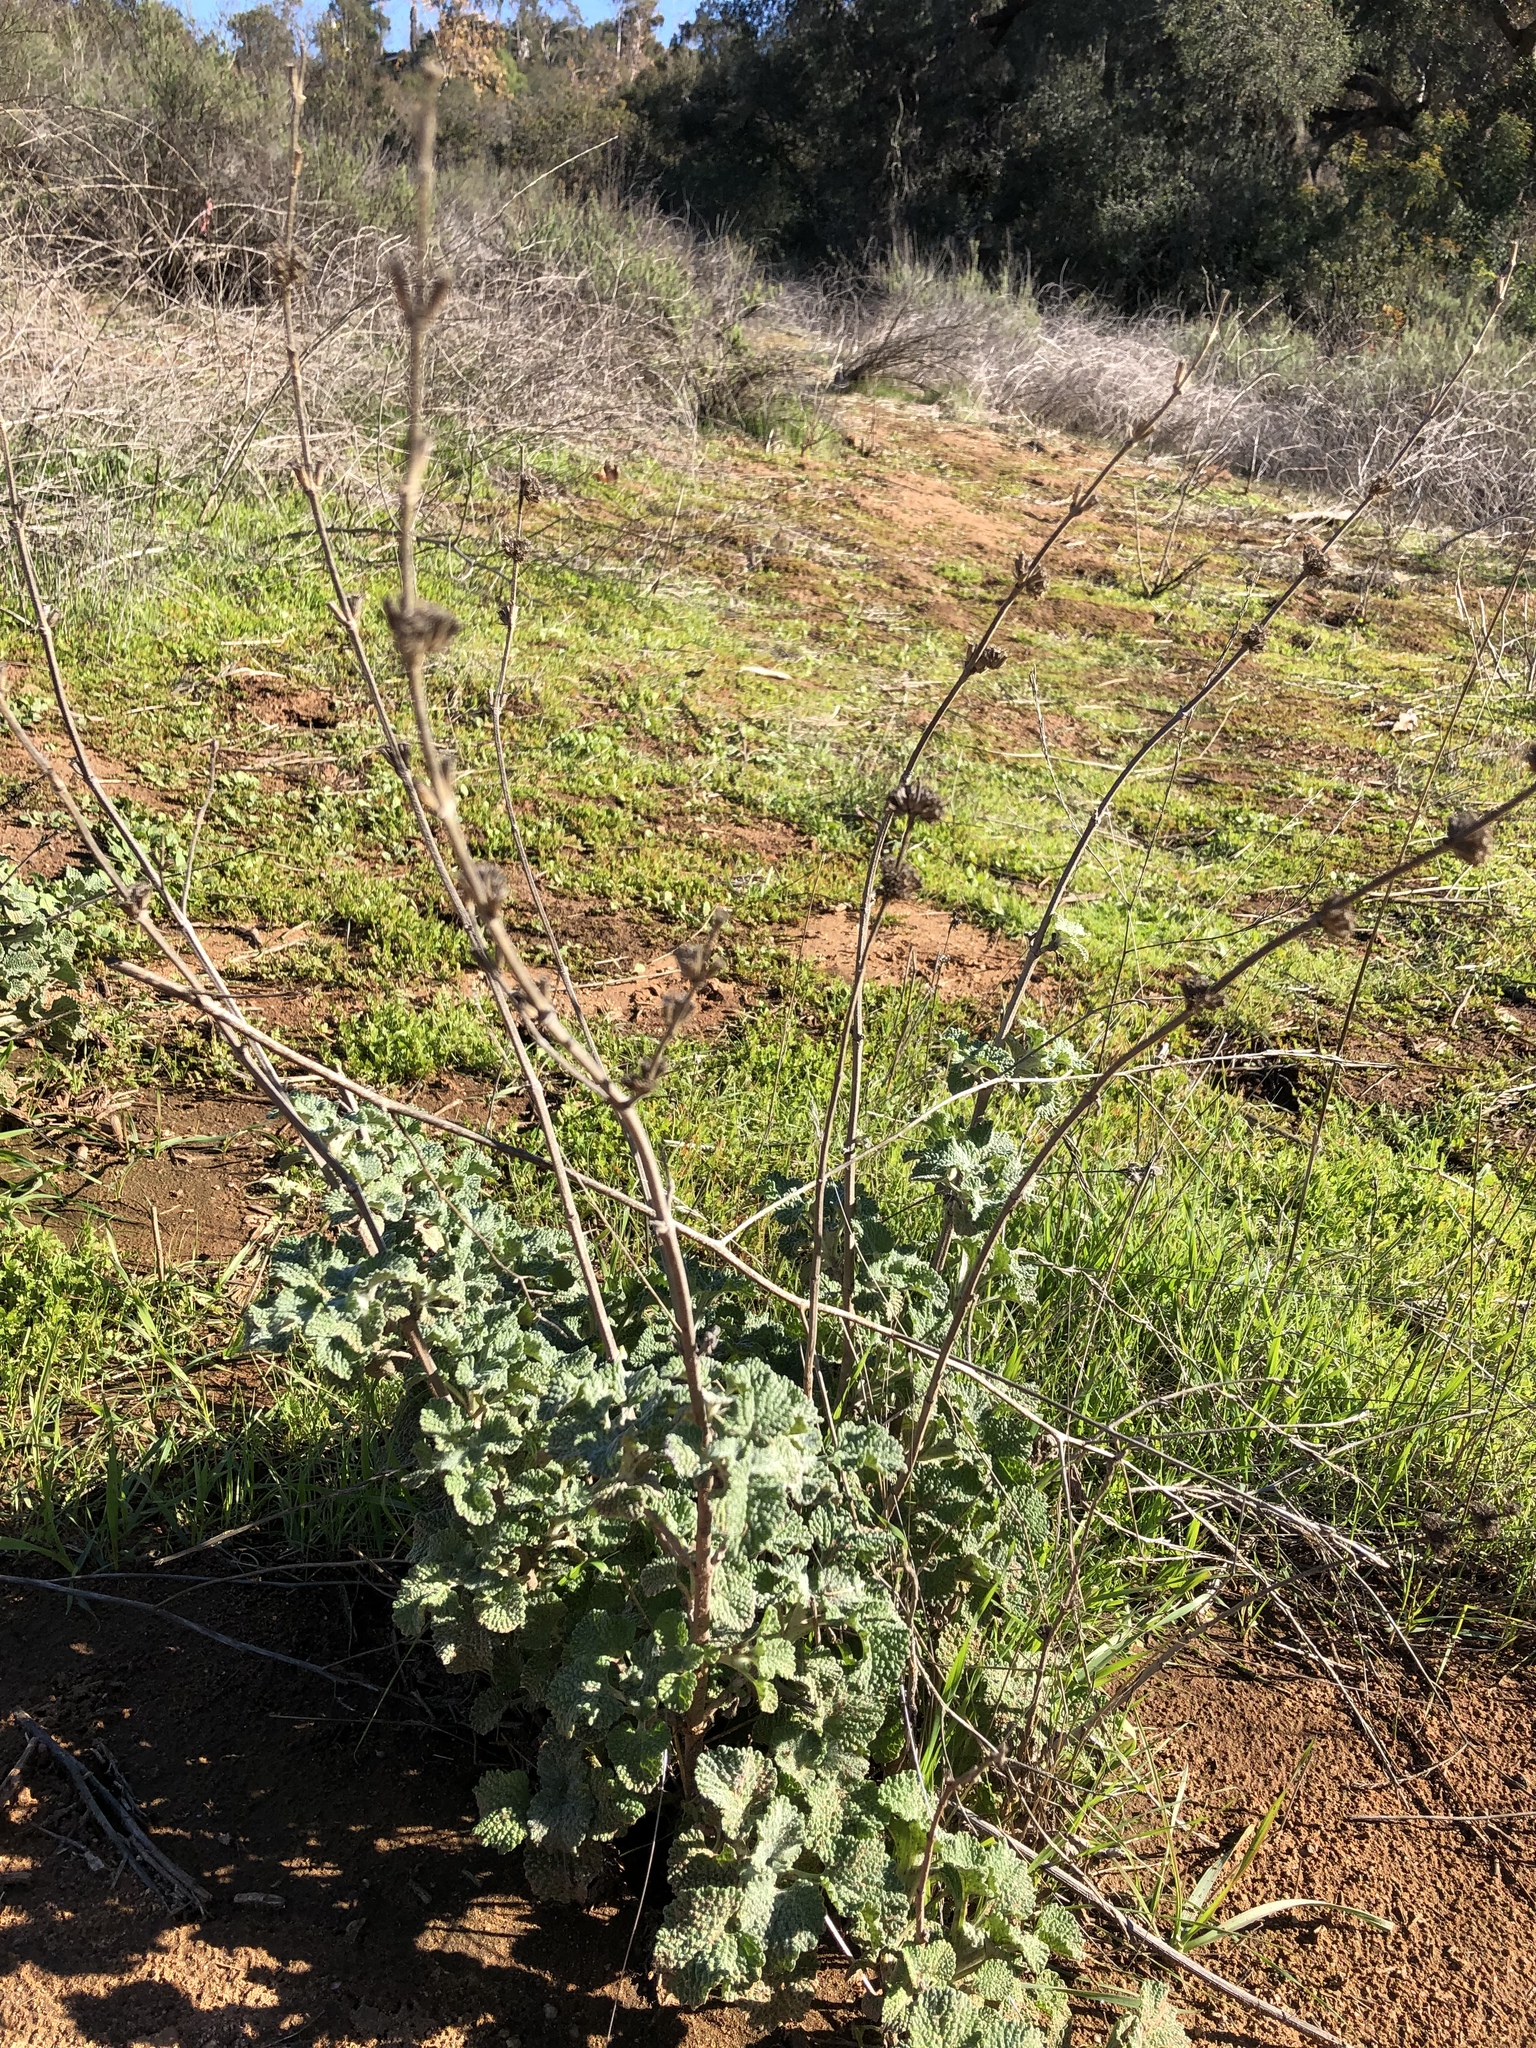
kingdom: Plantae
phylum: Tracheophyta
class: Magnoliopsida
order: Lamiales
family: Lamiaceae
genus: Marrubium
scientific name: Marrubium vulgare
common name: Horehound
